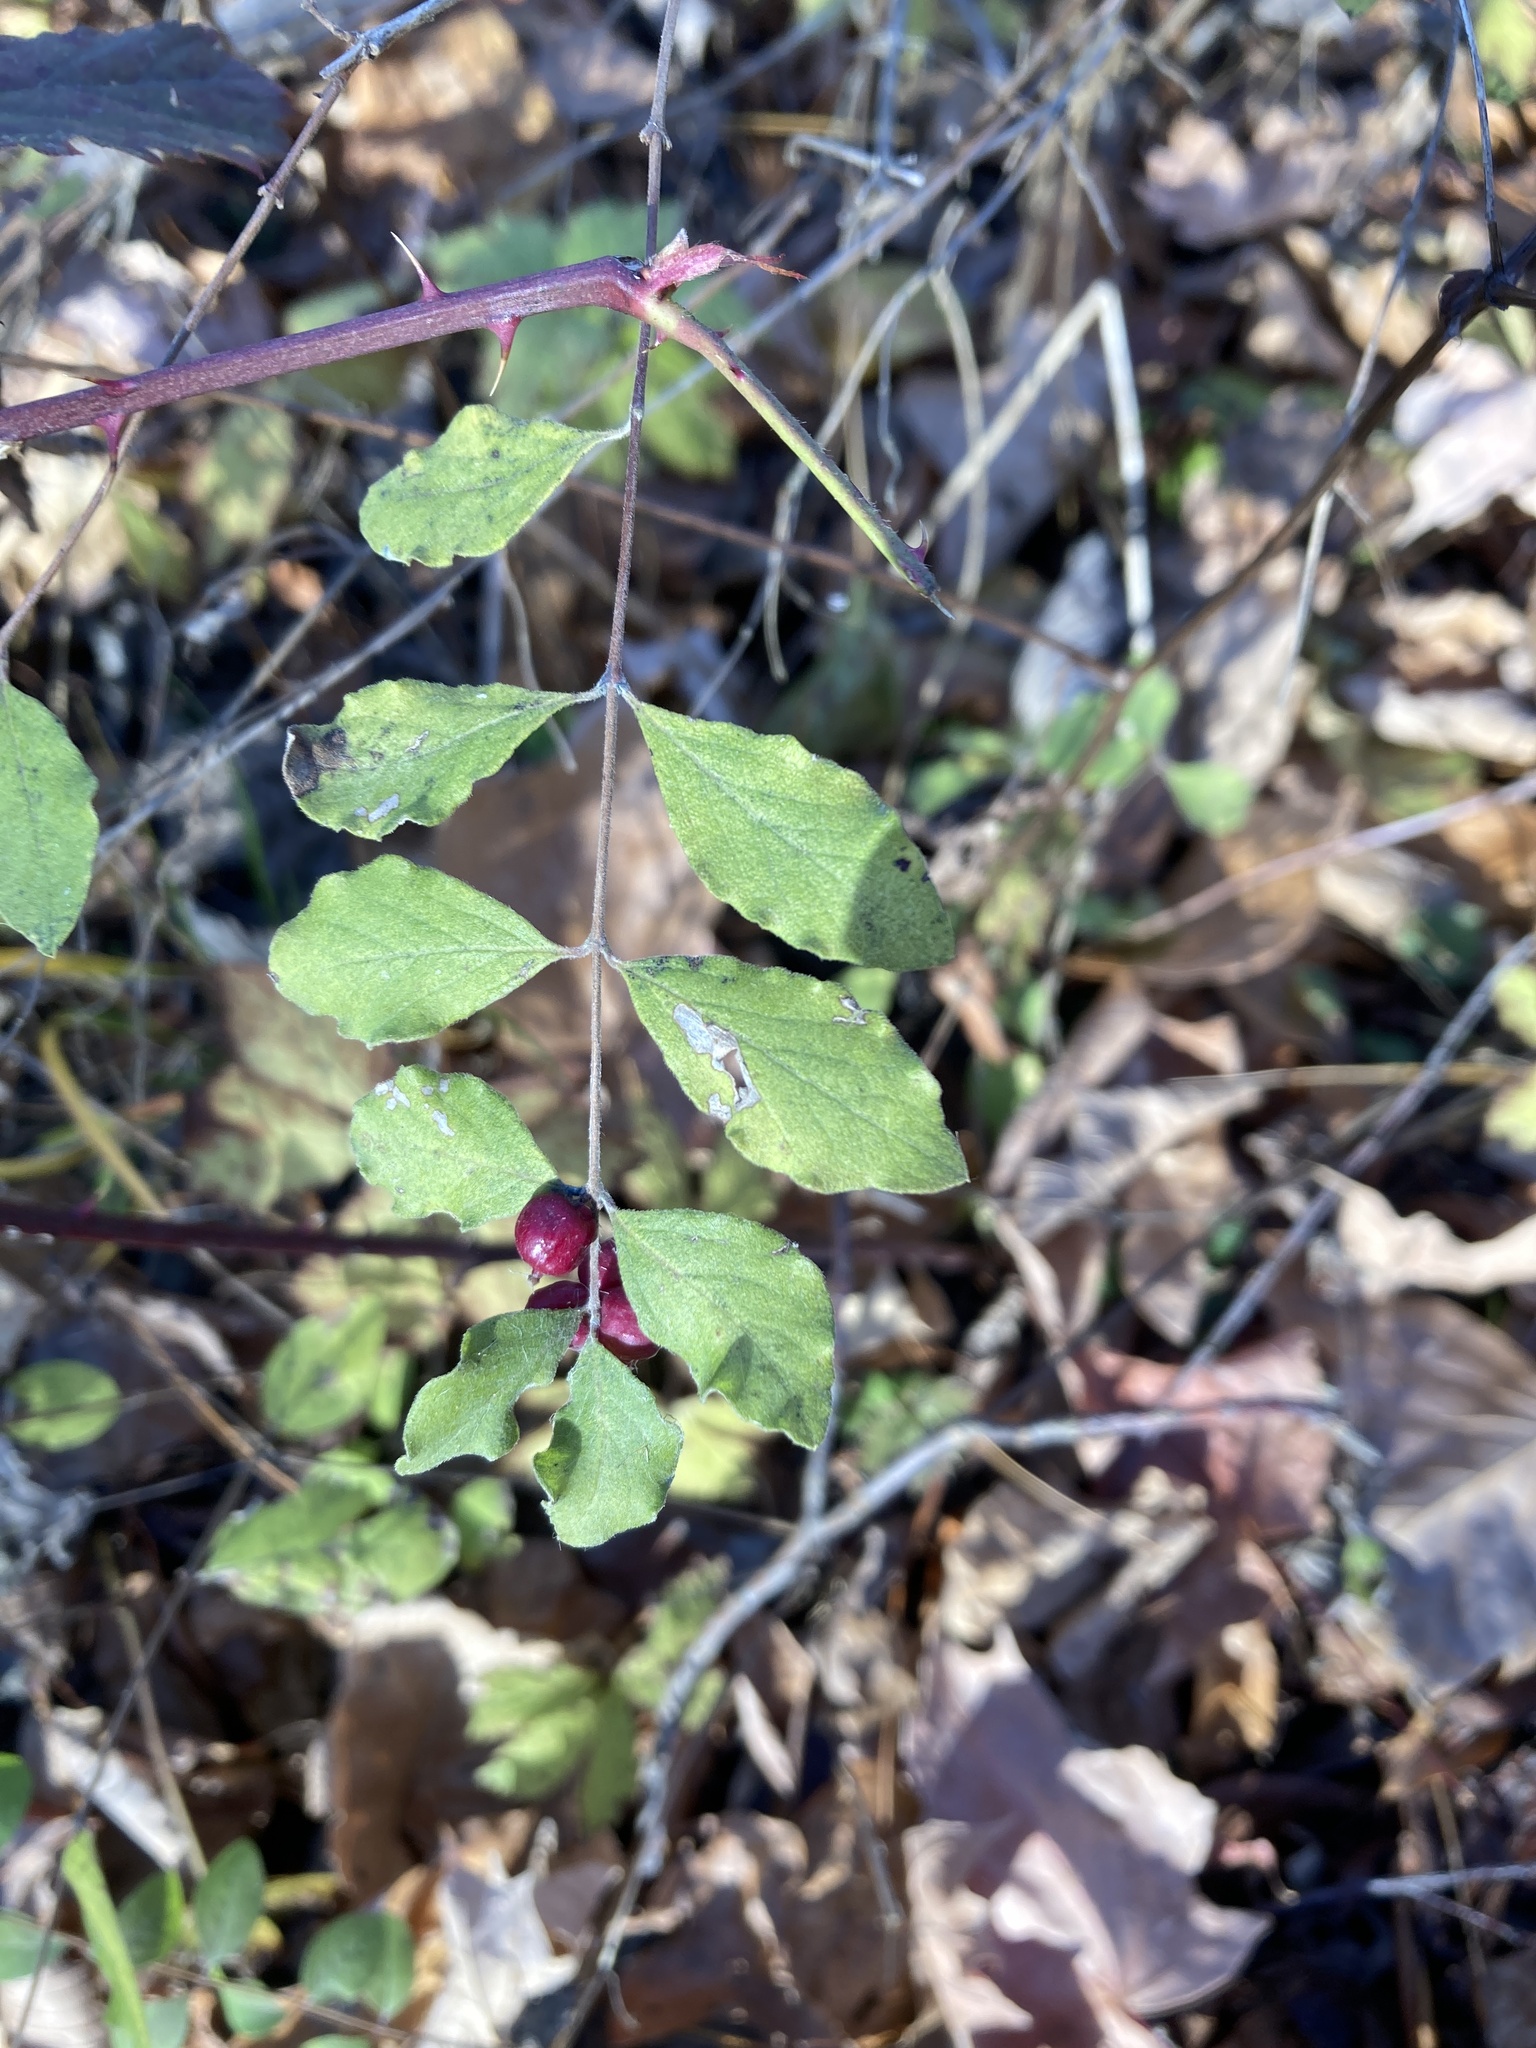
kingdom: Plantae
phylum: Tracheophyta
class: Magnoliopsida
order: Dipsacales
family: Caprifoliaceae
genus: Symphoricarpos
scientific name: Symphoricarpos orbiculatus
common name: Coralberry
